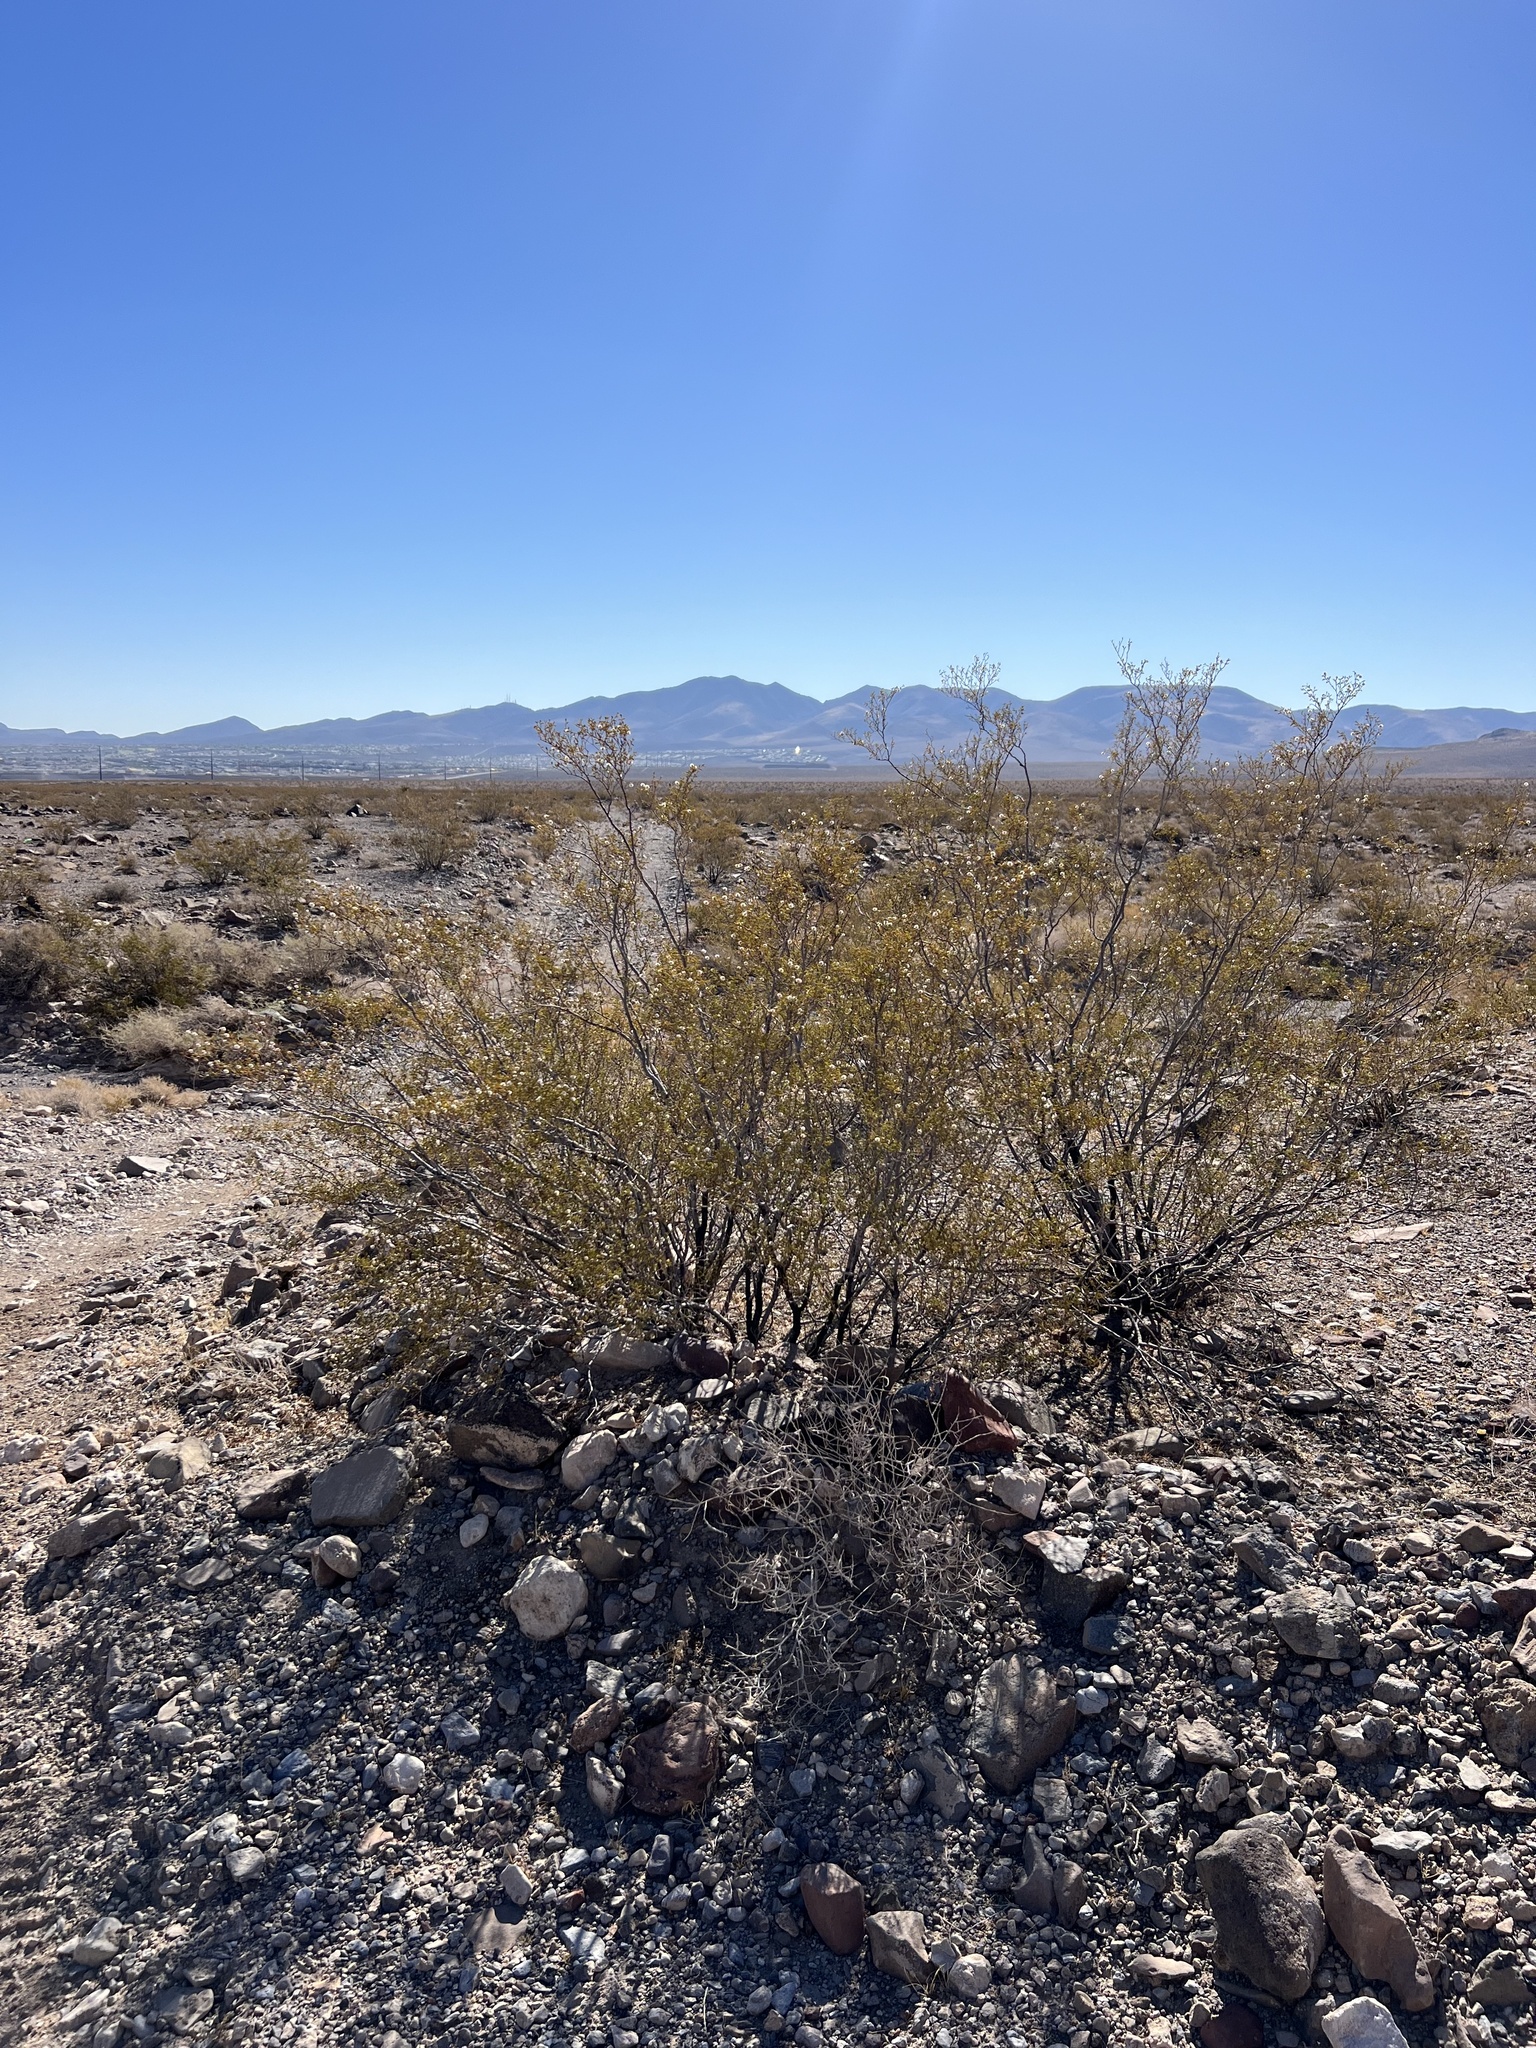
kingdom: Plantae
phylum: Tracheophyta
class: Magnoliopsida
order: Zygophyllales
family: Zygophyllaceae
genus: Larrea
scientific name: Larrea tridentata
